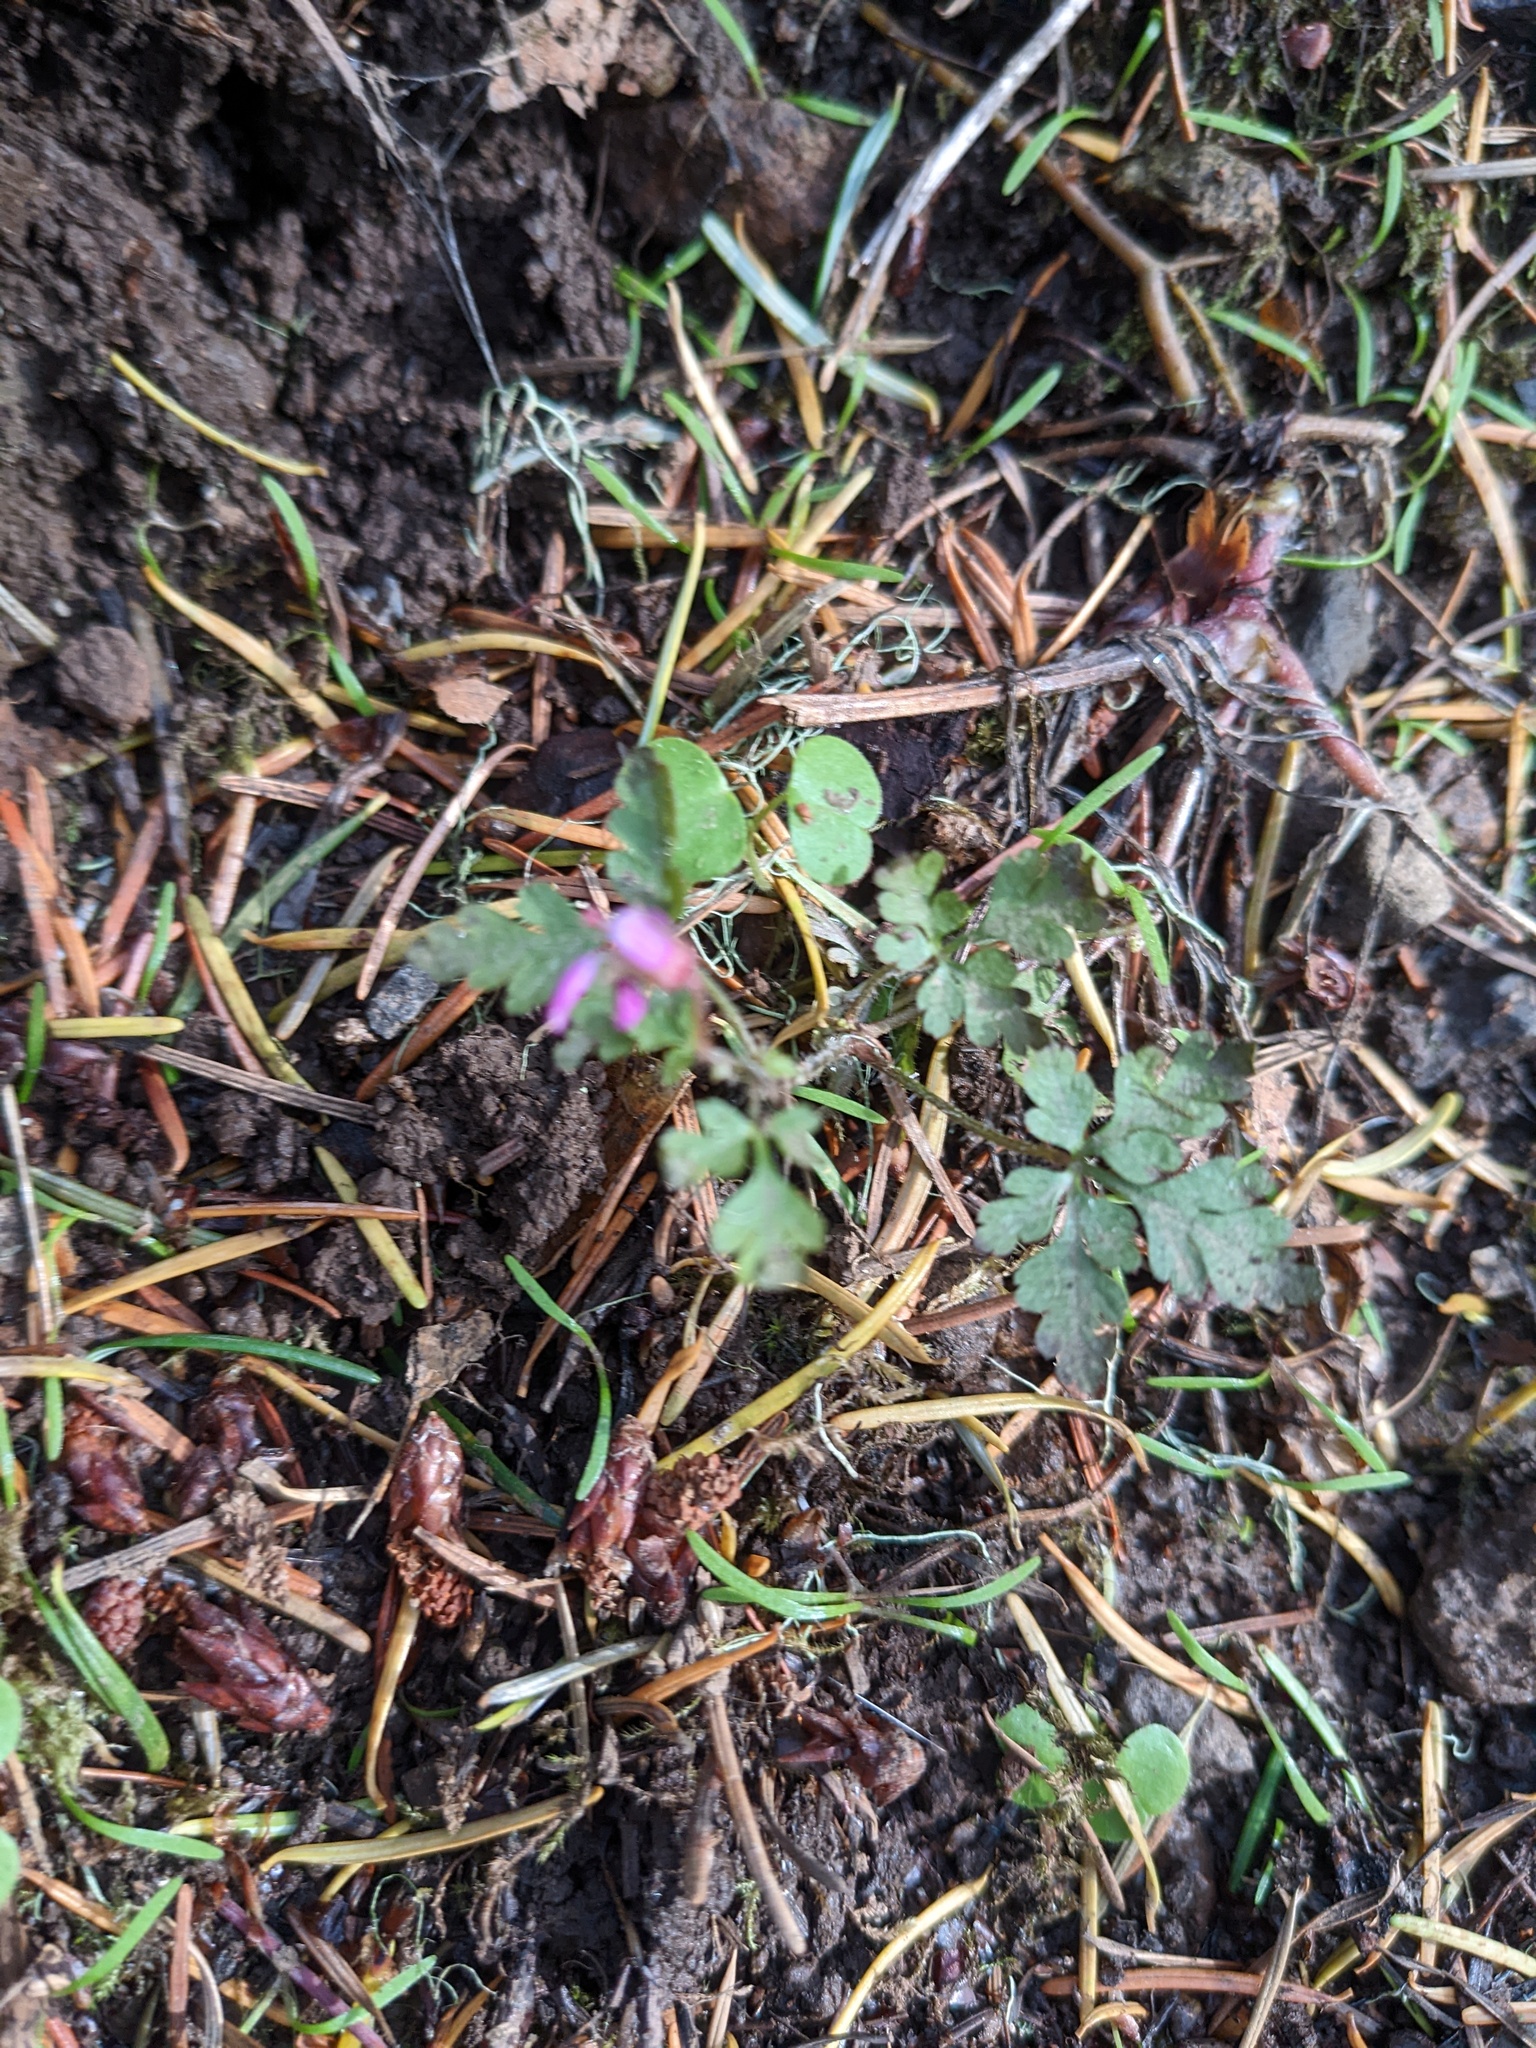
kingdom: Plantae
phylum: Tracheophyta
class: Magnoliopsida
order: Geraniales
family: Geraniaceae
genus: Geranium
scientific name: Geranium robertianum
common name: Herb-robert
